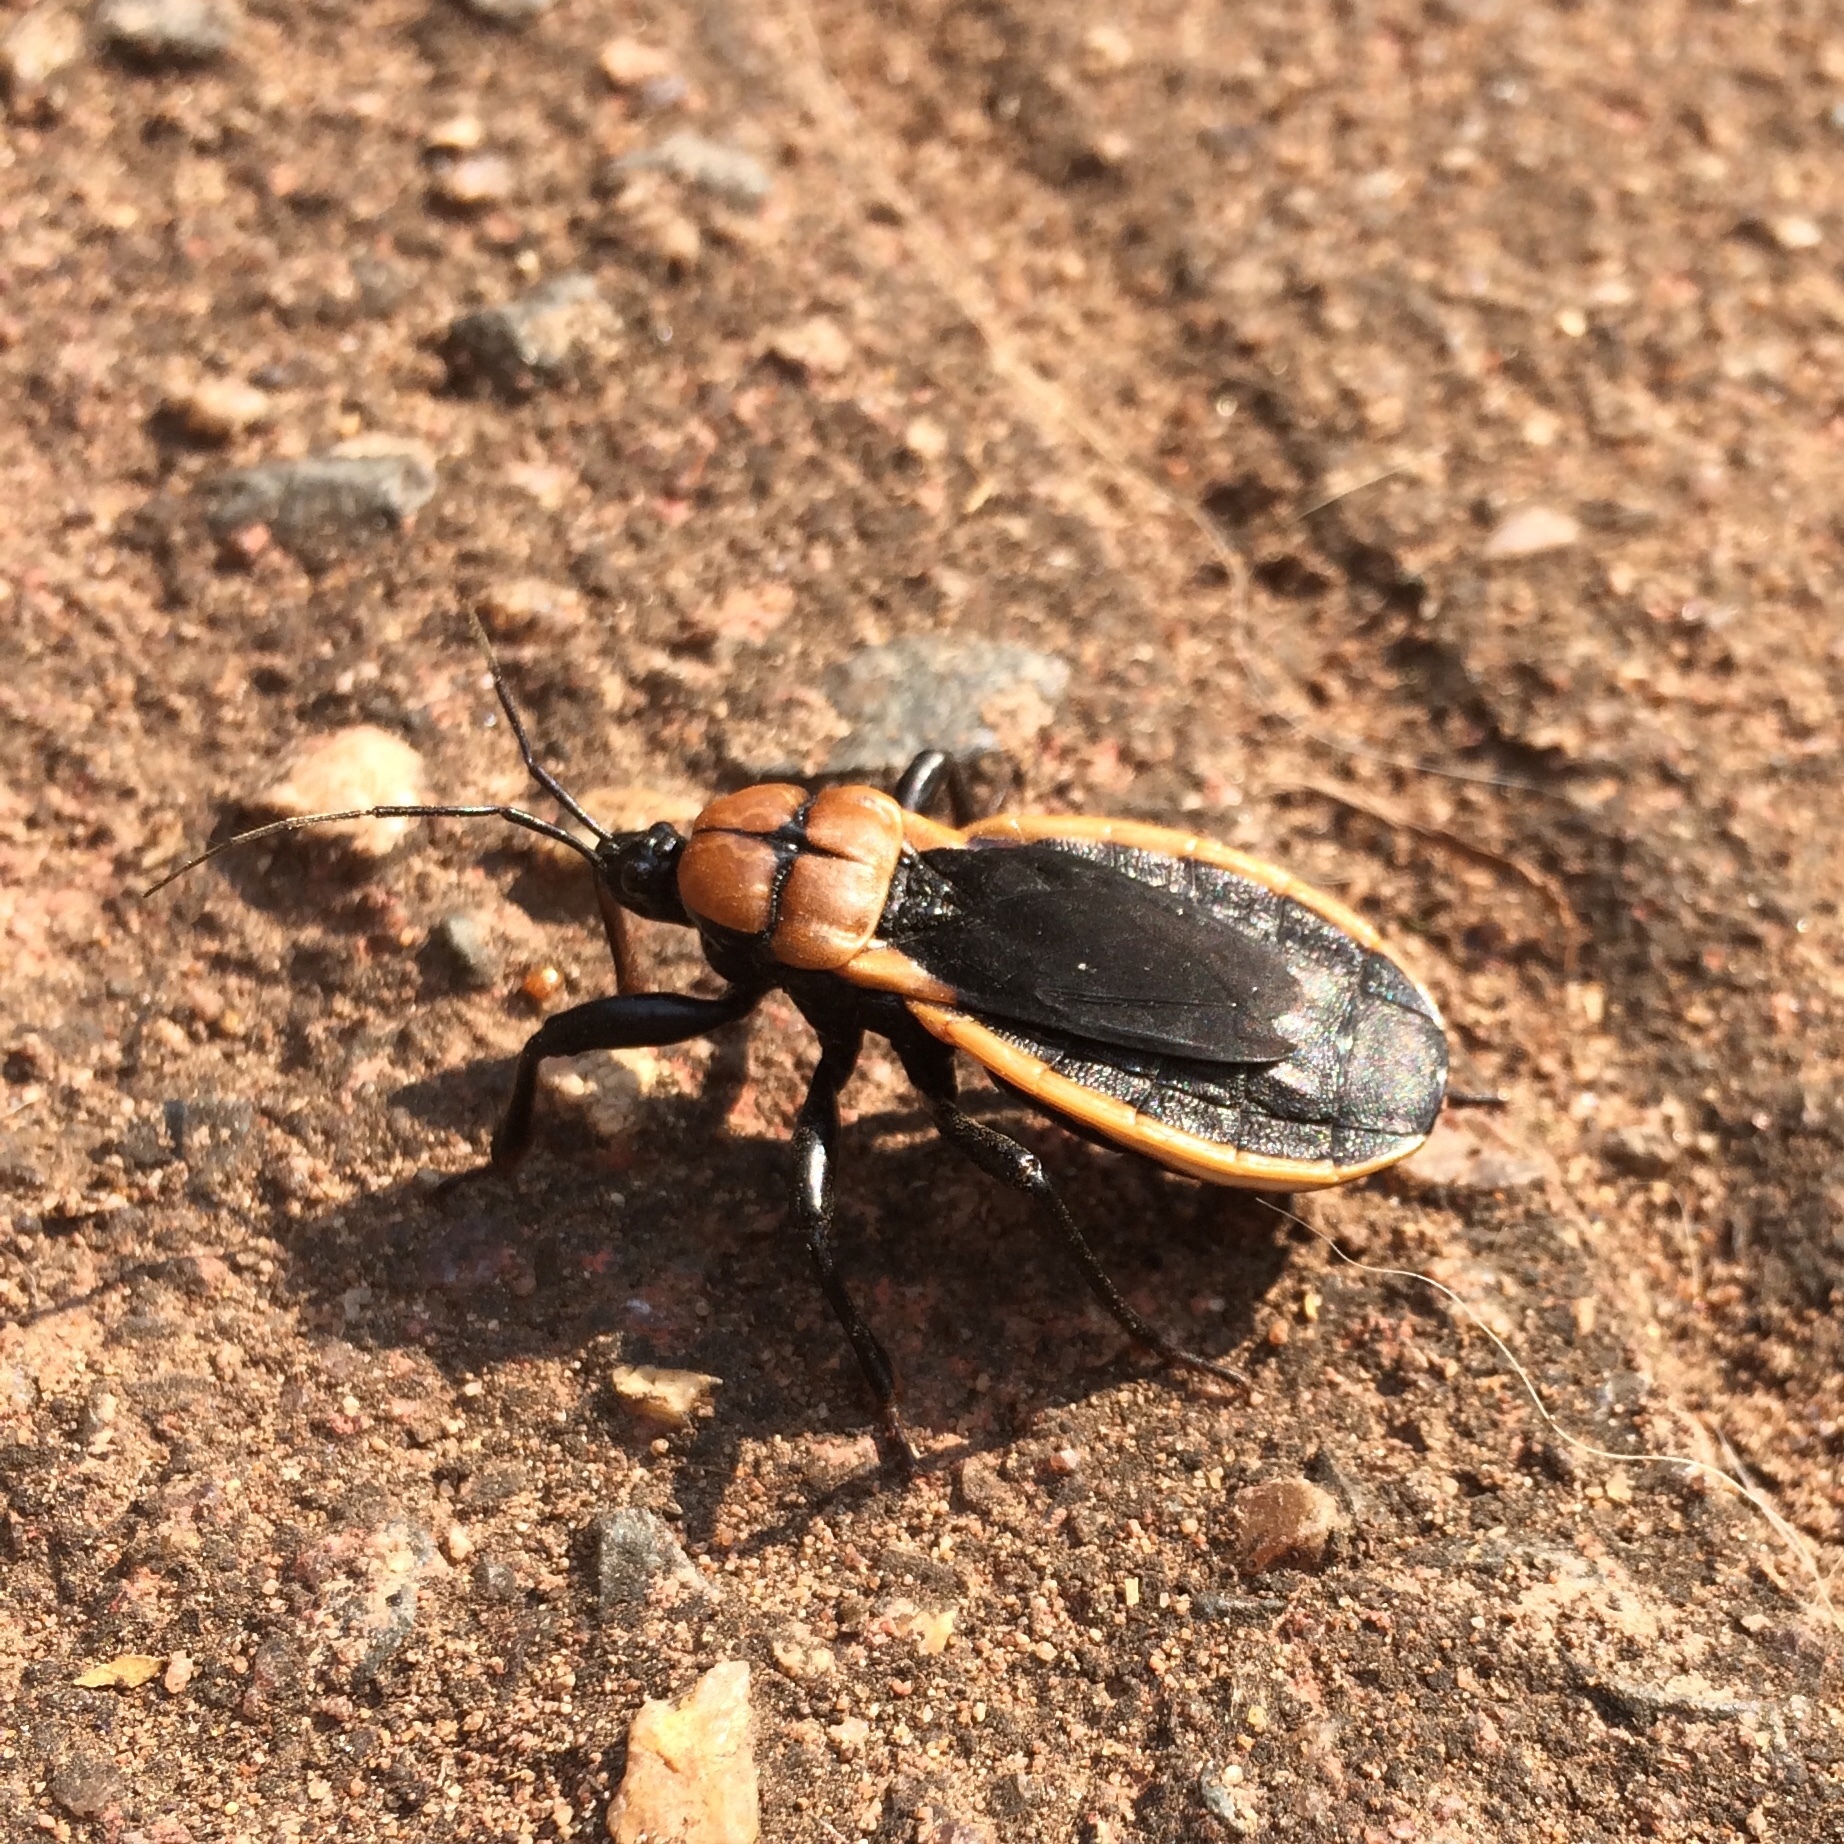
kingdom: Animalia
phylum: Arthropoda
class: Insecta
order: Hemiptera
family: Reduviidae
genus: Ectrichodia
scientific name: Ectrichodia crux
